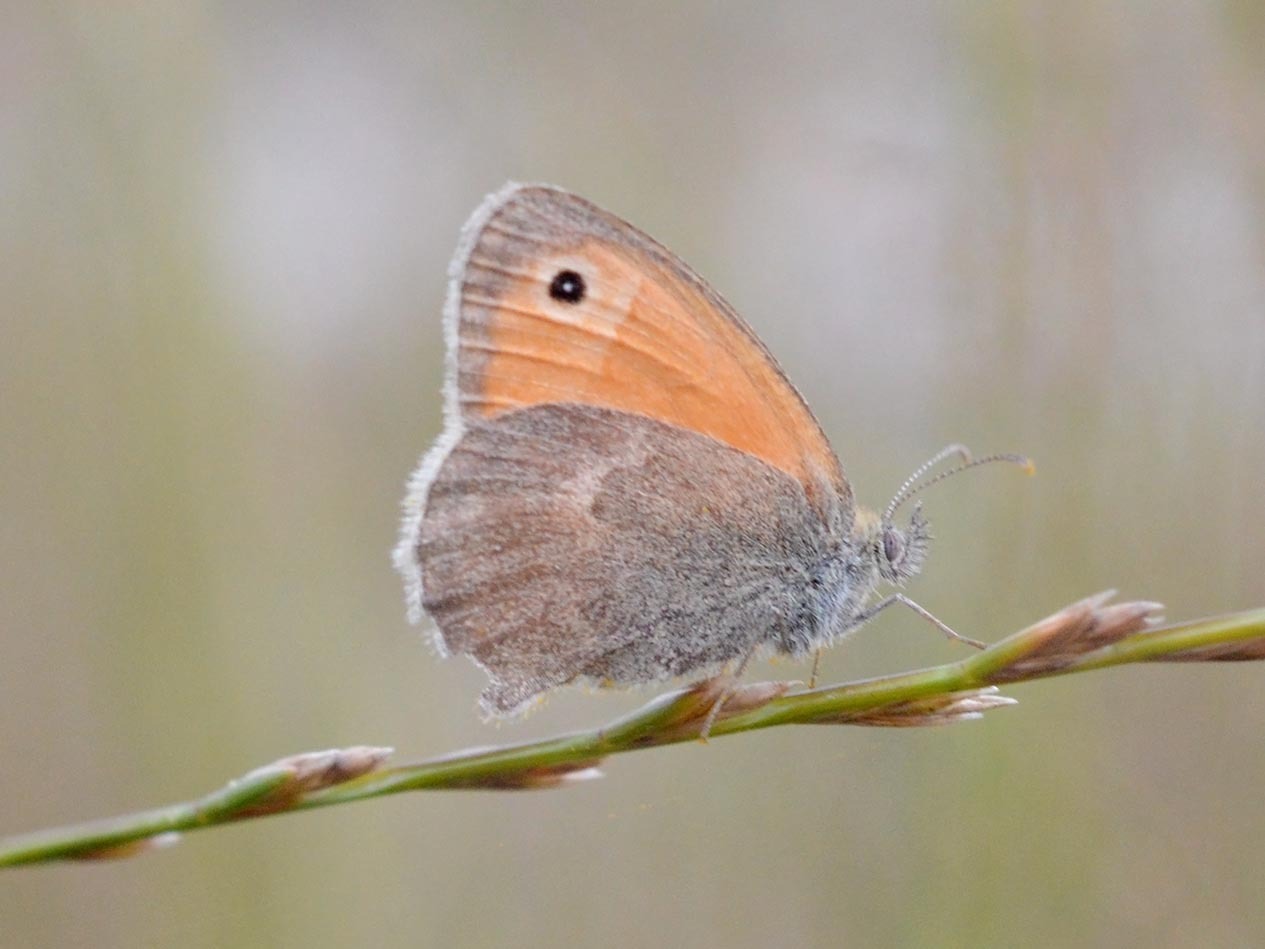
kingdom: Animalia
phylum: Arthropoda
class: Insecta
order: Lepidoptera
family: Nymphalidae
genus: Coenonympha
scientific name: Coenonympha pamphilus
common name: Small heath
